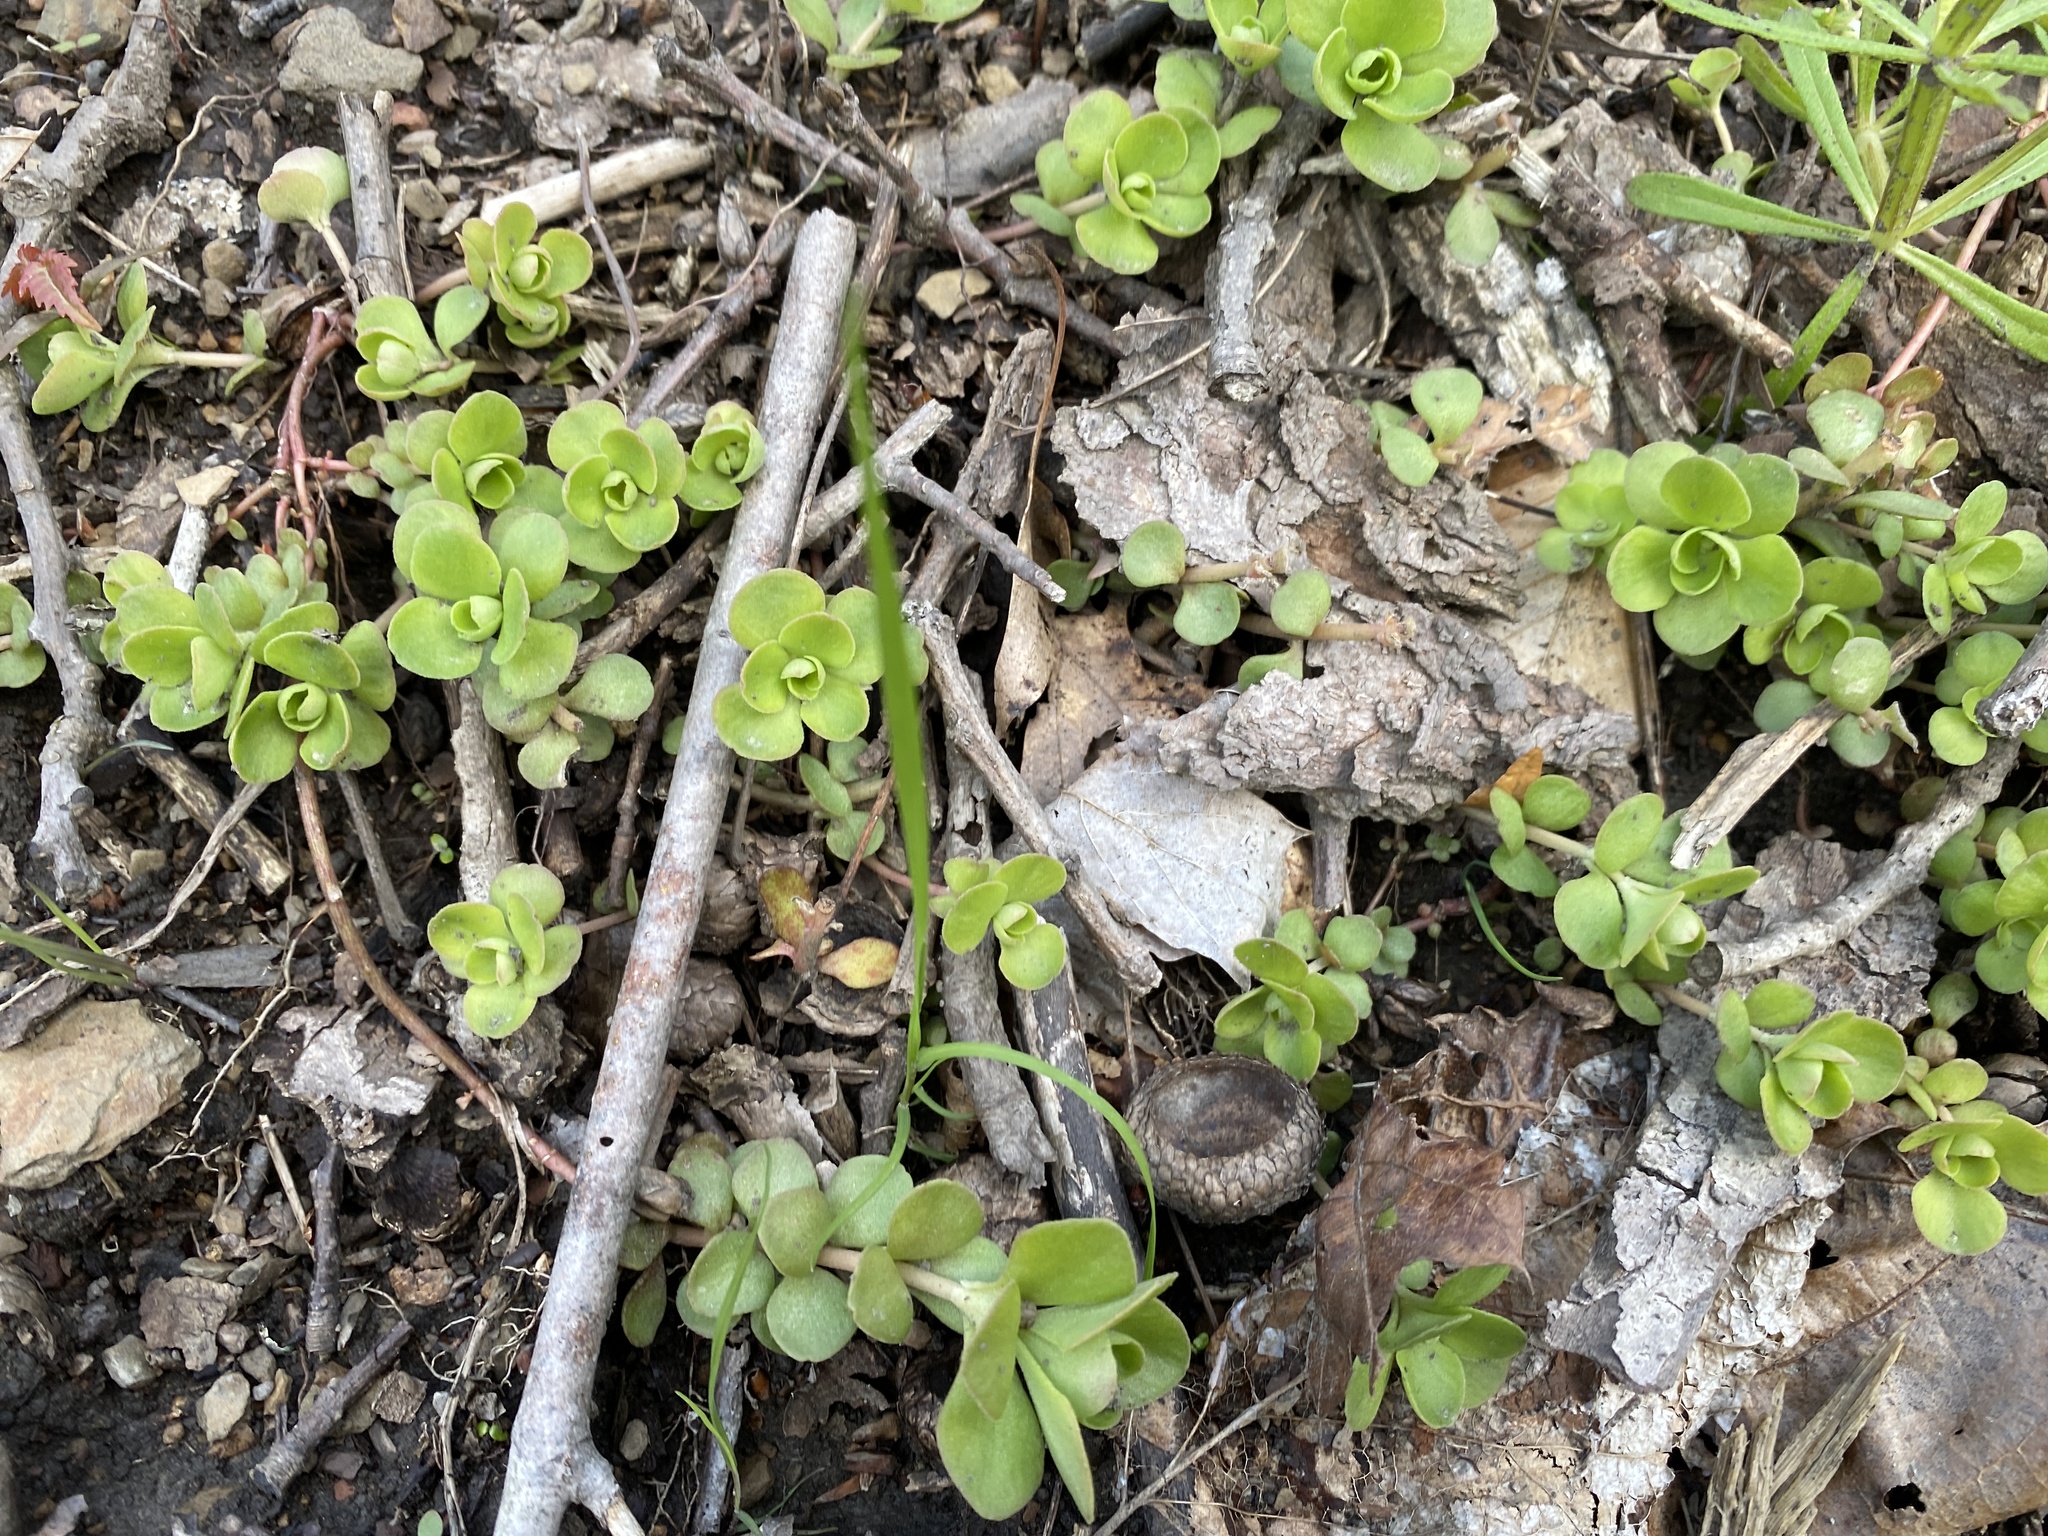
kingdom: Plantae
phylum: Tracheophyta
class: Magnoliopsida
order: Saxifragales
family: Crassulaceae
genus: Sedum
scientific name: Sedum ternatum
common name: Wild stonecrop
